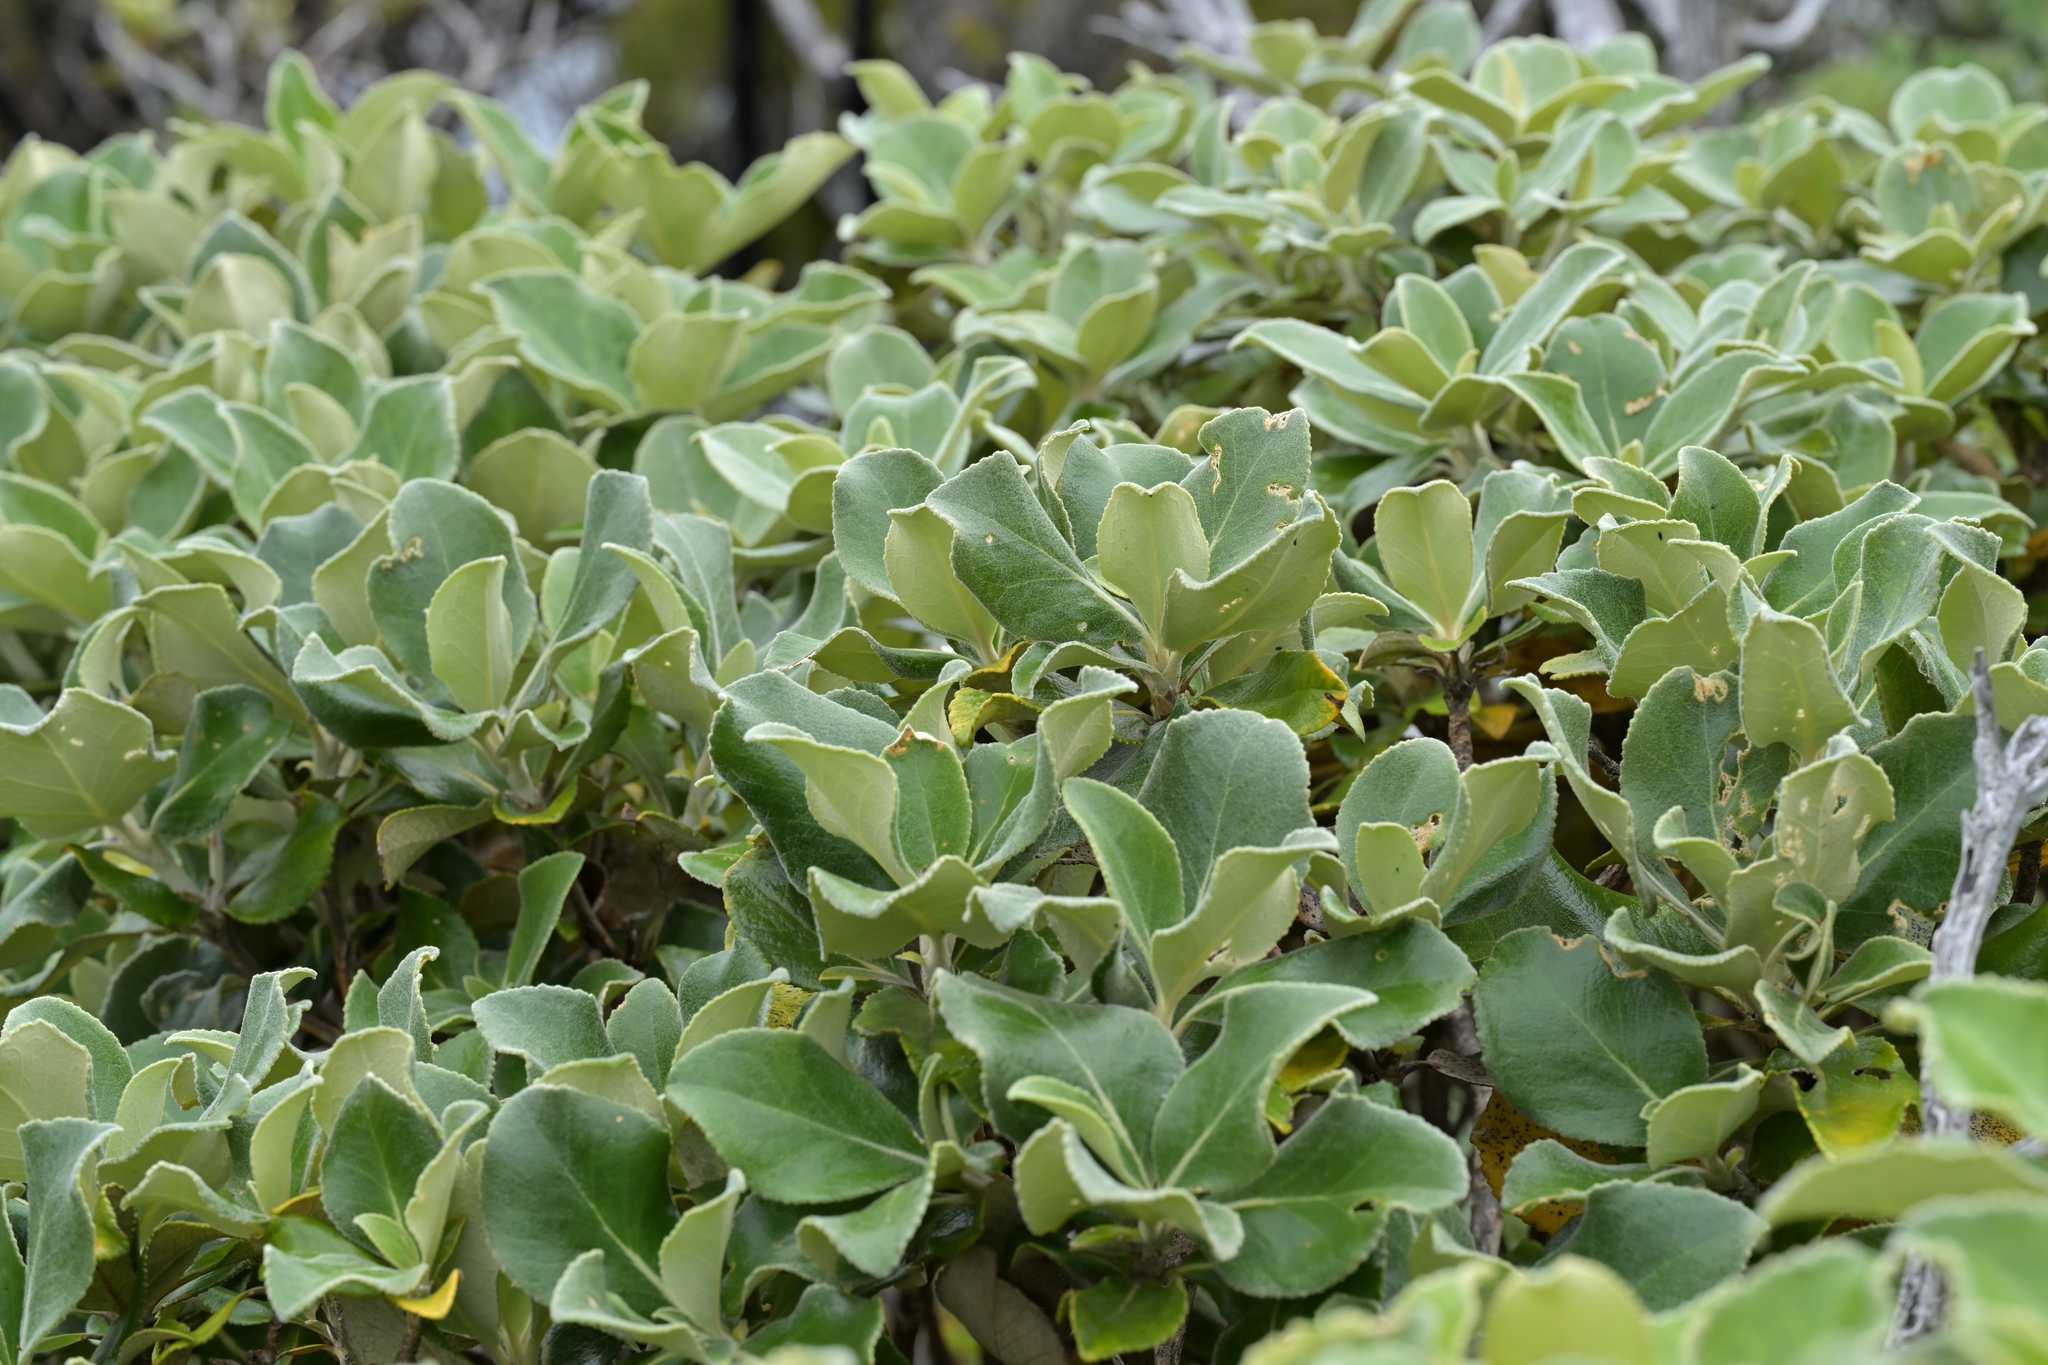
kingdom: Plantae
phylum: Tracheophyta
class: Magnoliopsida
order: Asterales
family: Asteraceae
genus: Macrolearia
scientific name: Macrolearia colensoi
